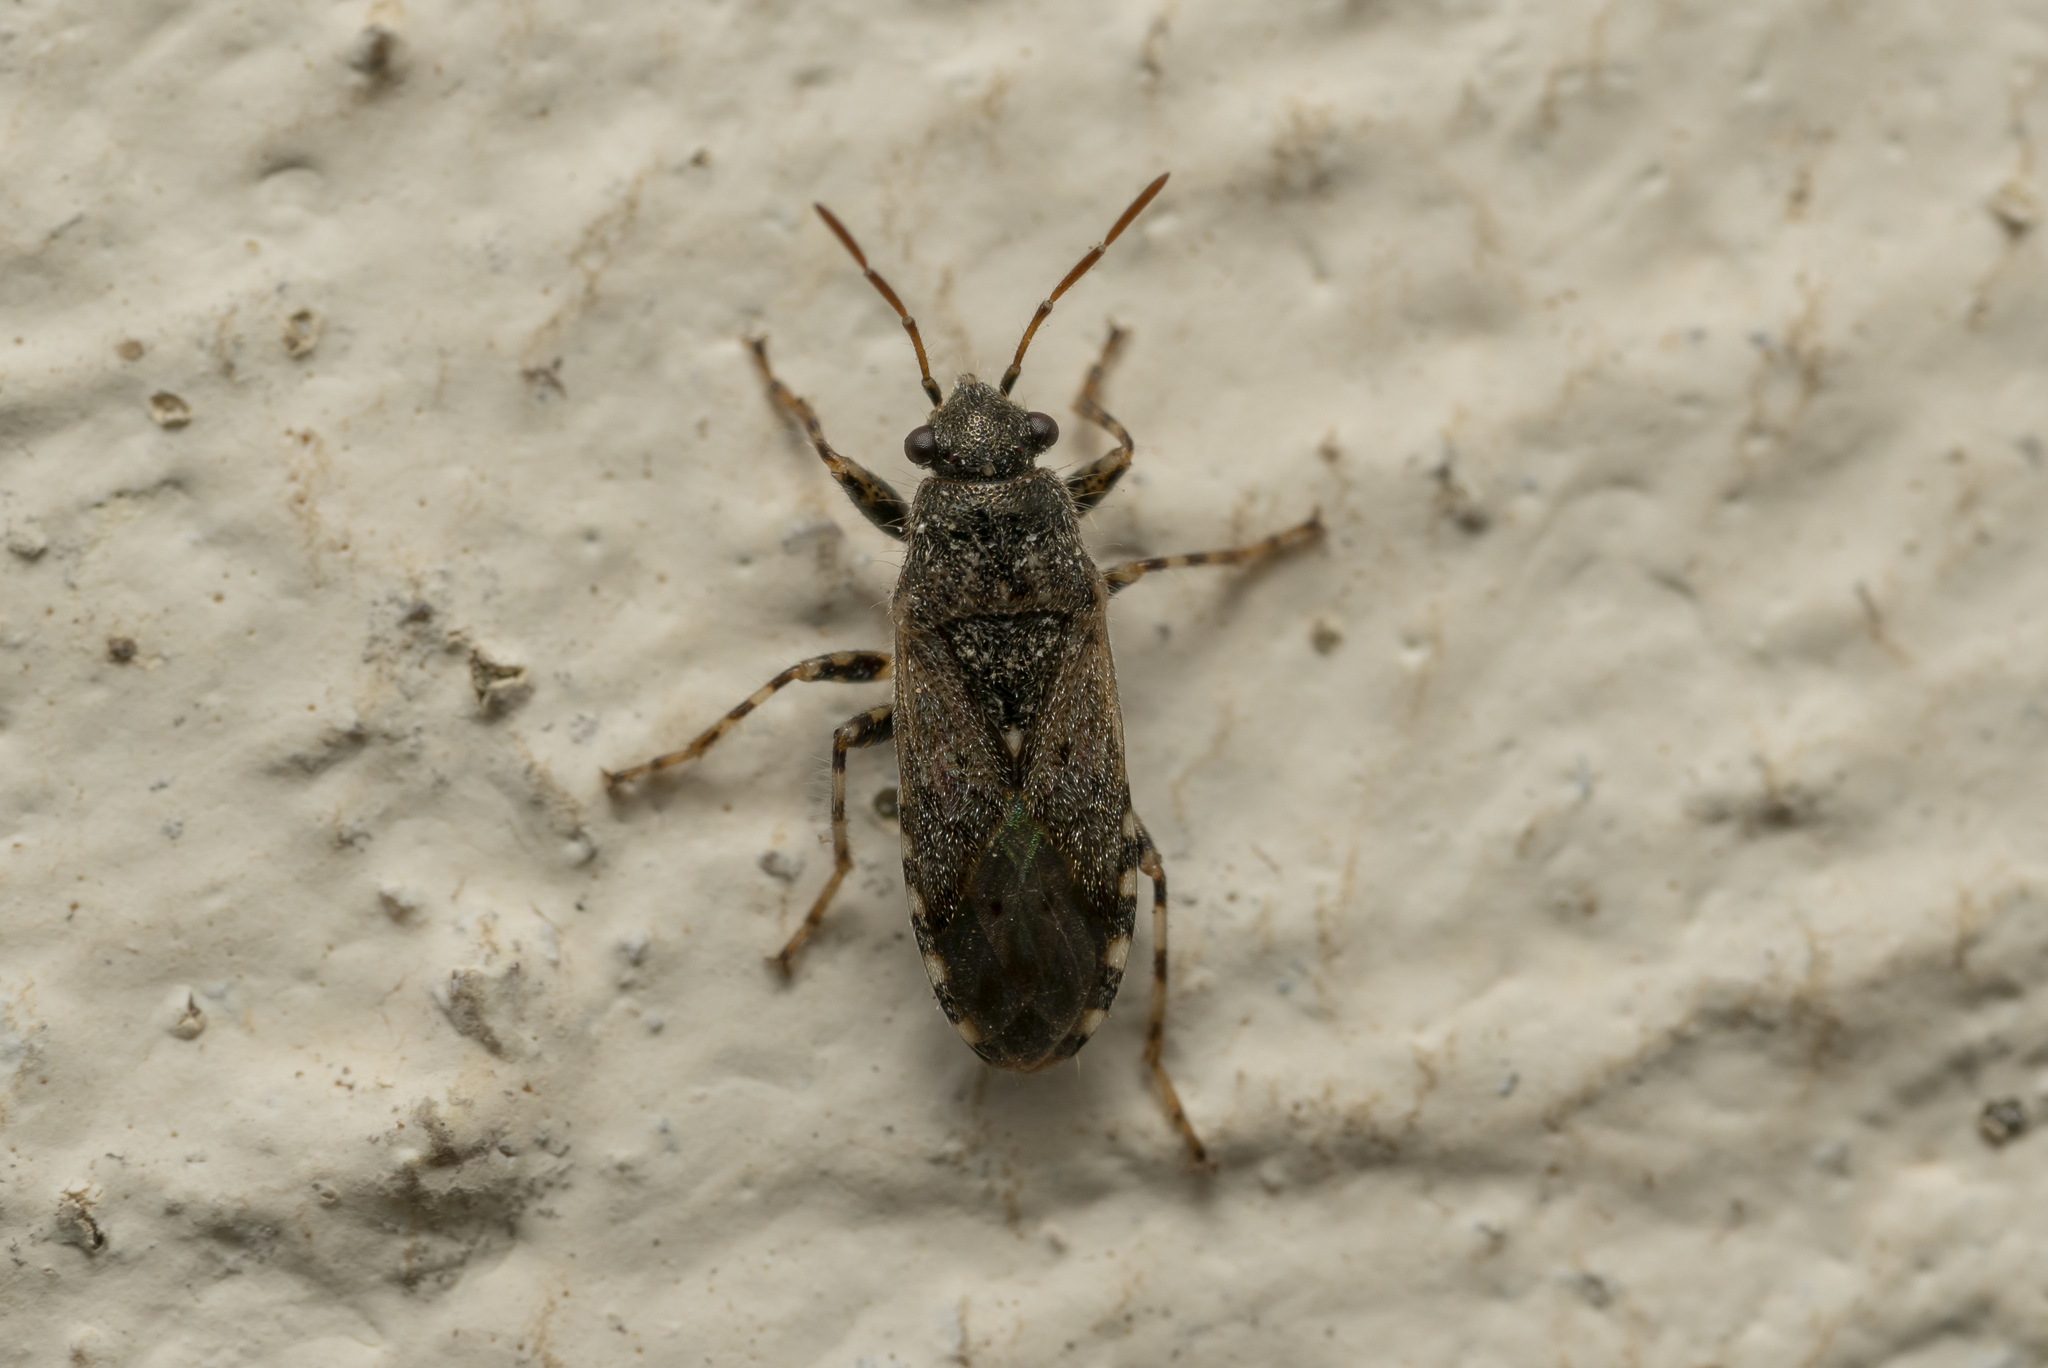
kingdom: Animalia
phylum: Arthropoda
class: Insecta
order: Hemiptera
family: Heterogastridae
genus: Heterogaster
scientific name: Heterogaster urticae
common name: Seed bug
